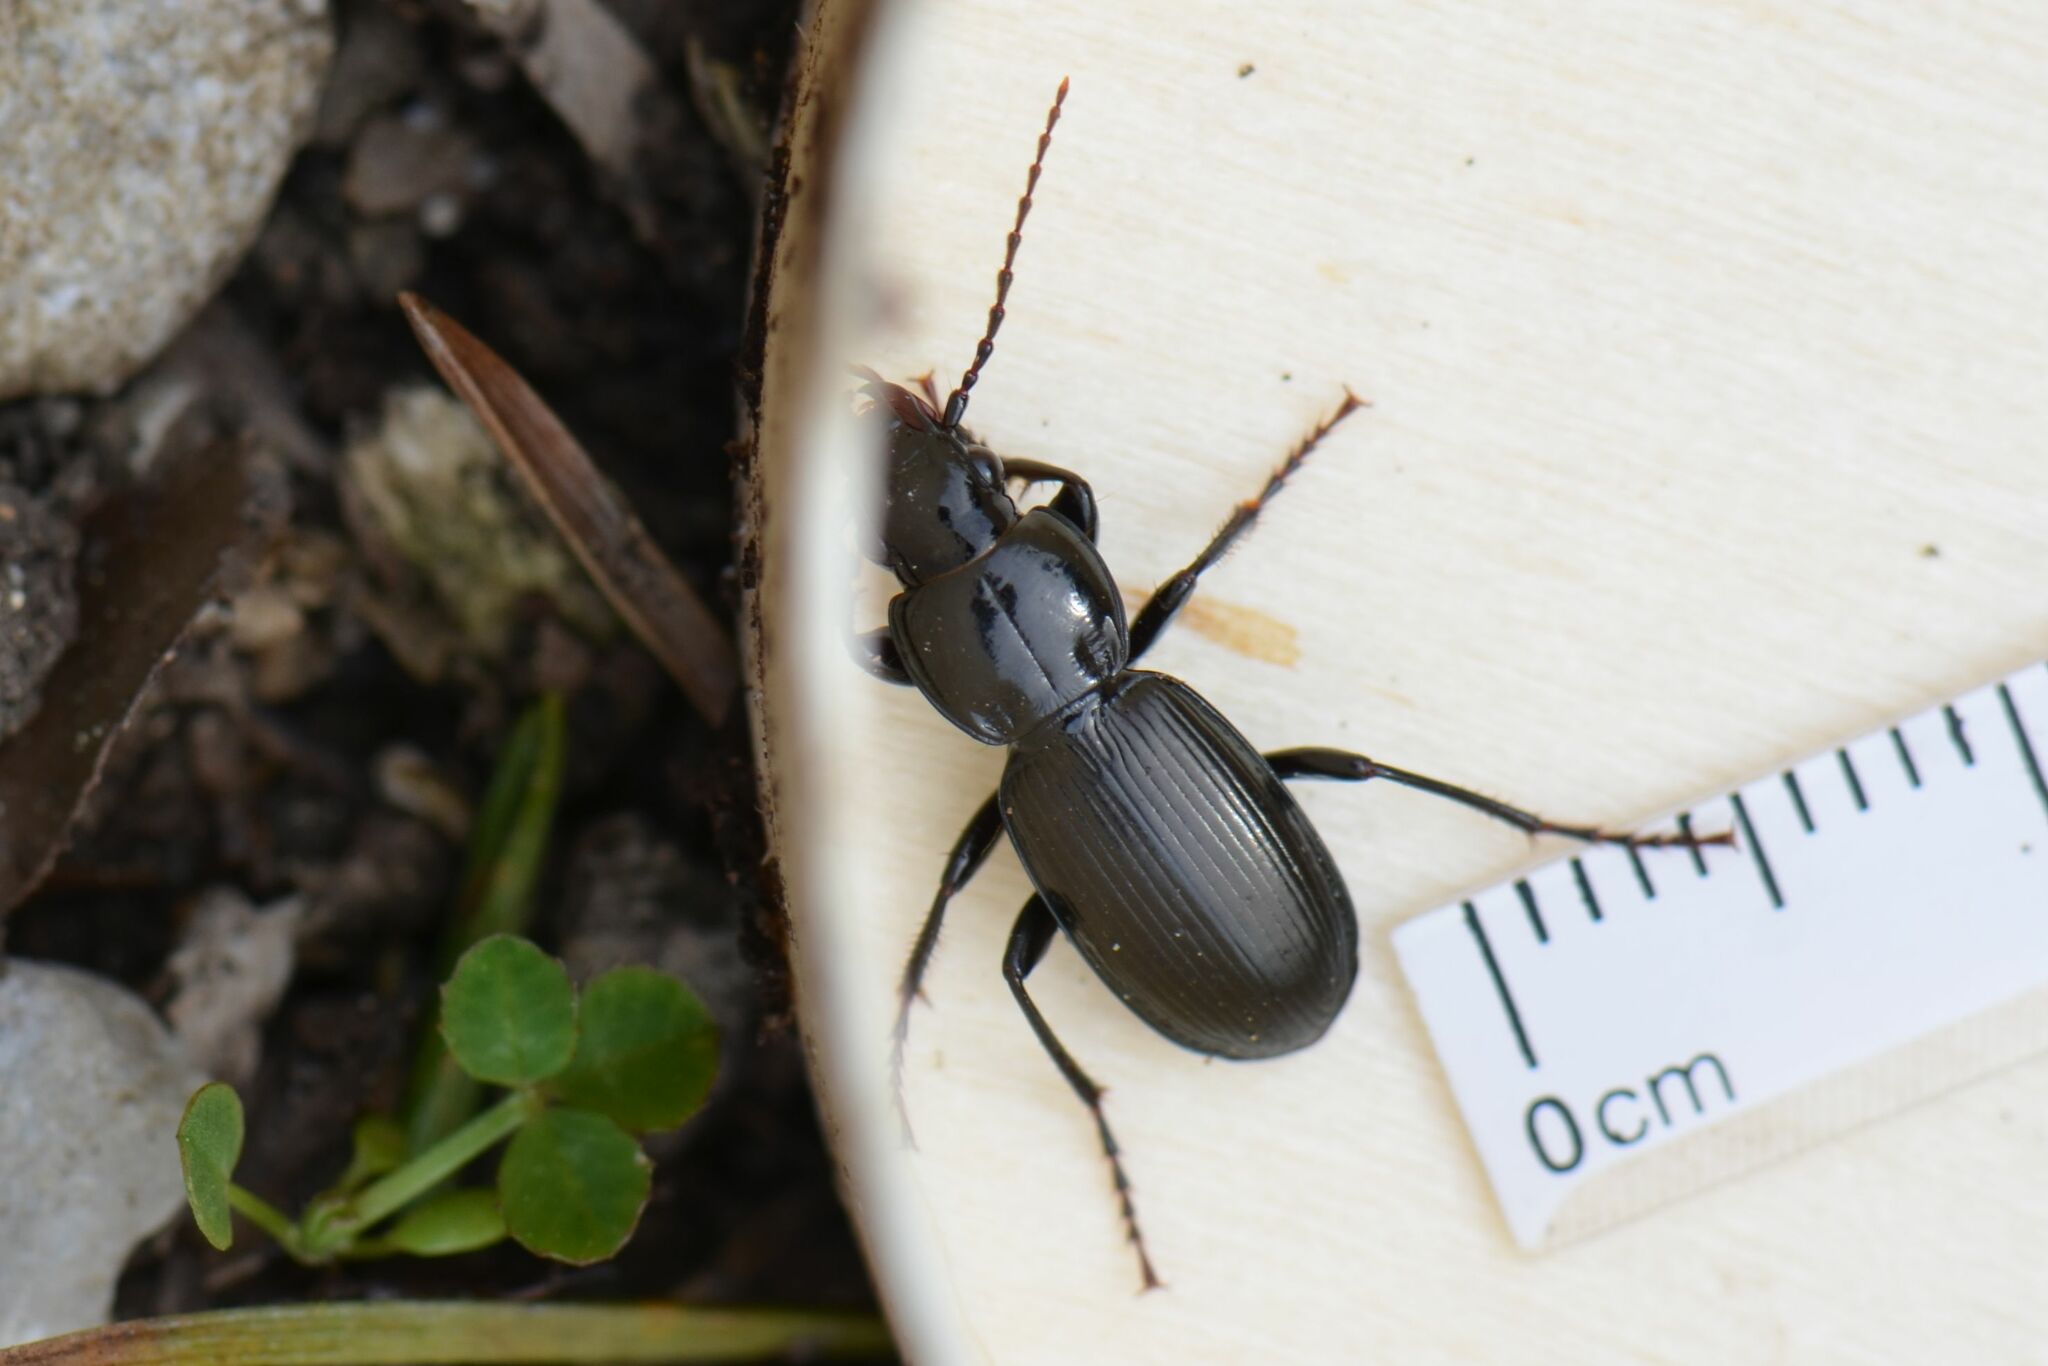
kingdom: Animalia
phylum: Arthropoda
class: Insecta
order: Coleoptera
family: Carabidae
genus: Pterostichus
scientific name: Pterostichus madidus
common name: Black clock
